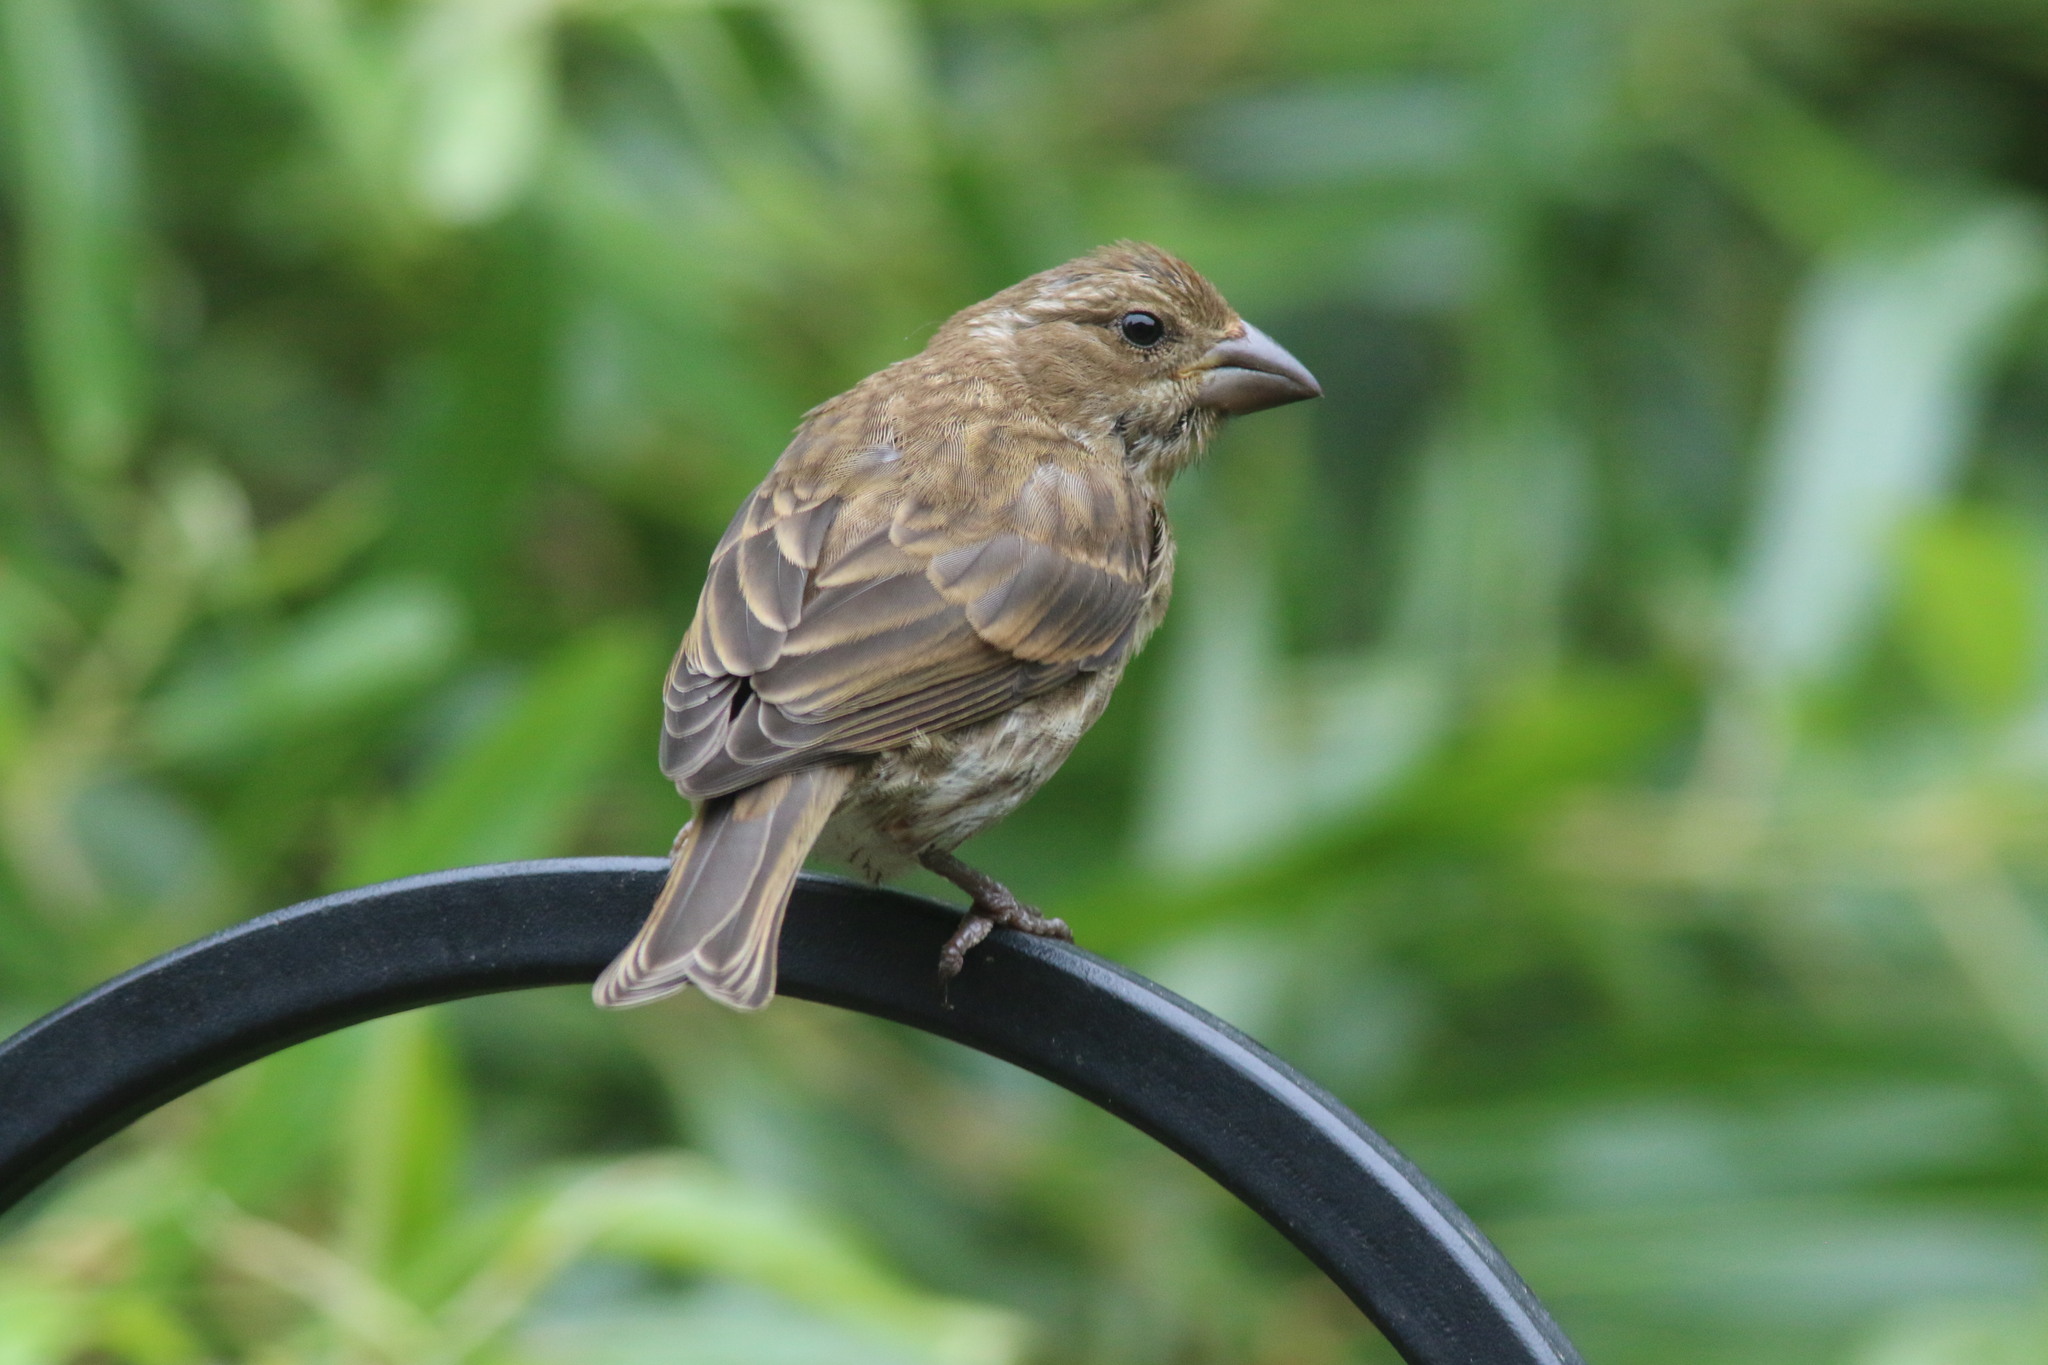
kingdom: Animalia
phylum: Chordata
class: Aves
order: Passeriformes
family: Fringillidae
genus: Haemorhous
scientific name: Haemorhous purpureus
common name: Purple finch
